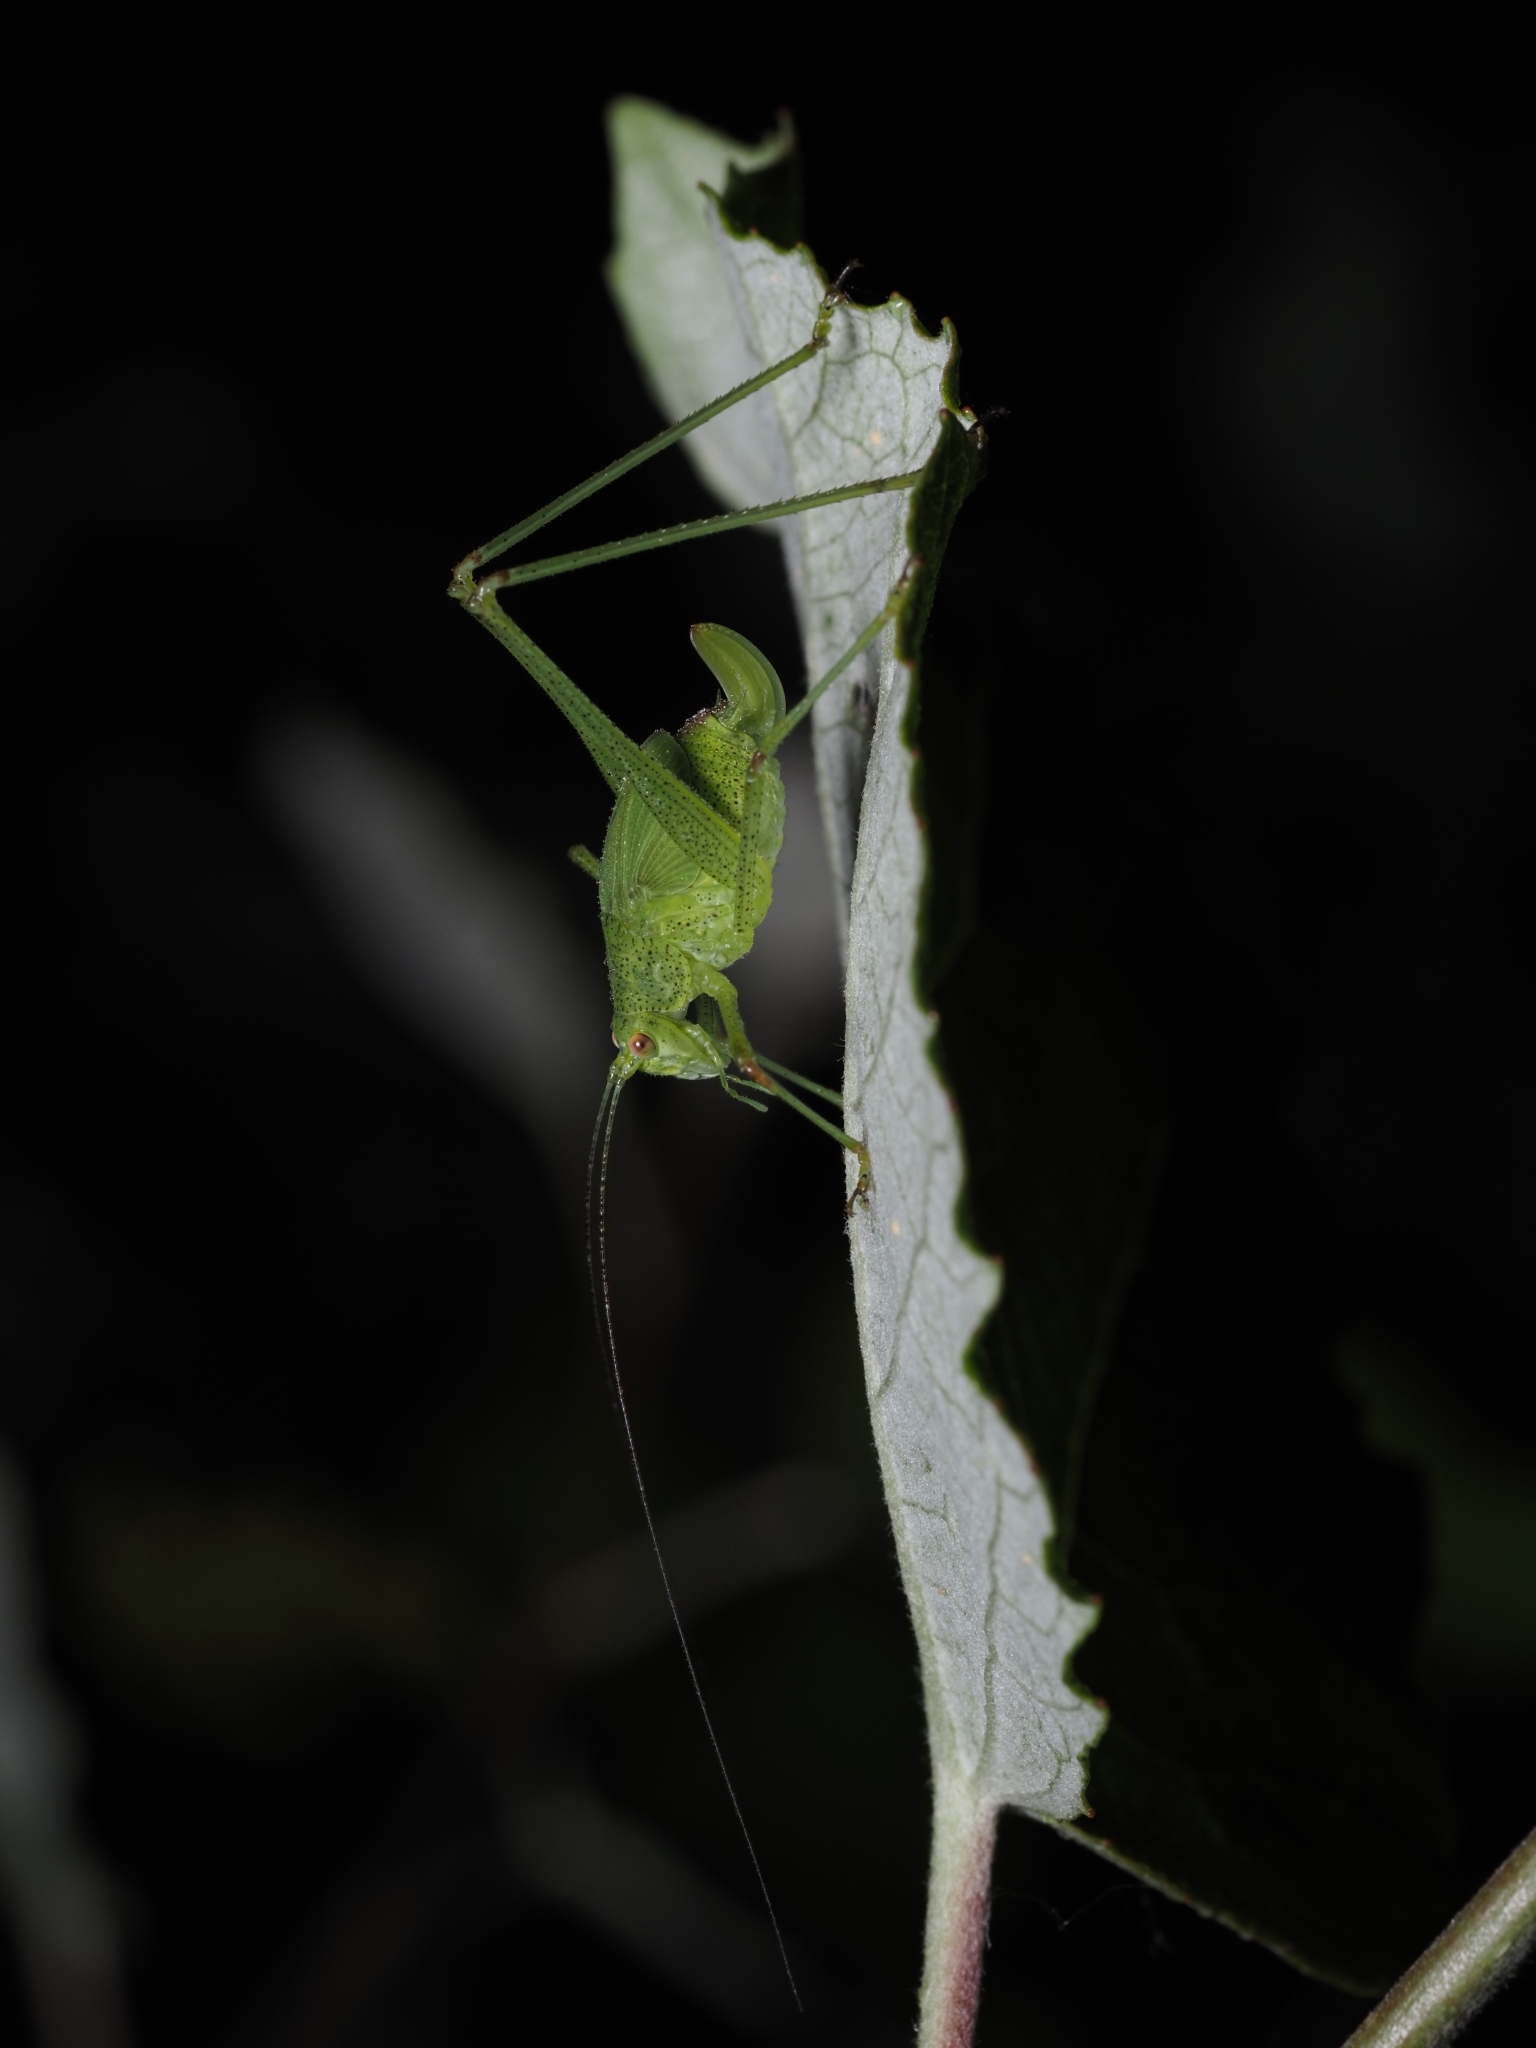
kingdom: Animalia
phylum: Arthropoda
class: Insecta
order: Orthoptera
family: Tettigoniidae
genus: Phaneroptera
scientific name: Phaneroptera nana
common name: Southern sickle bush-cricket
